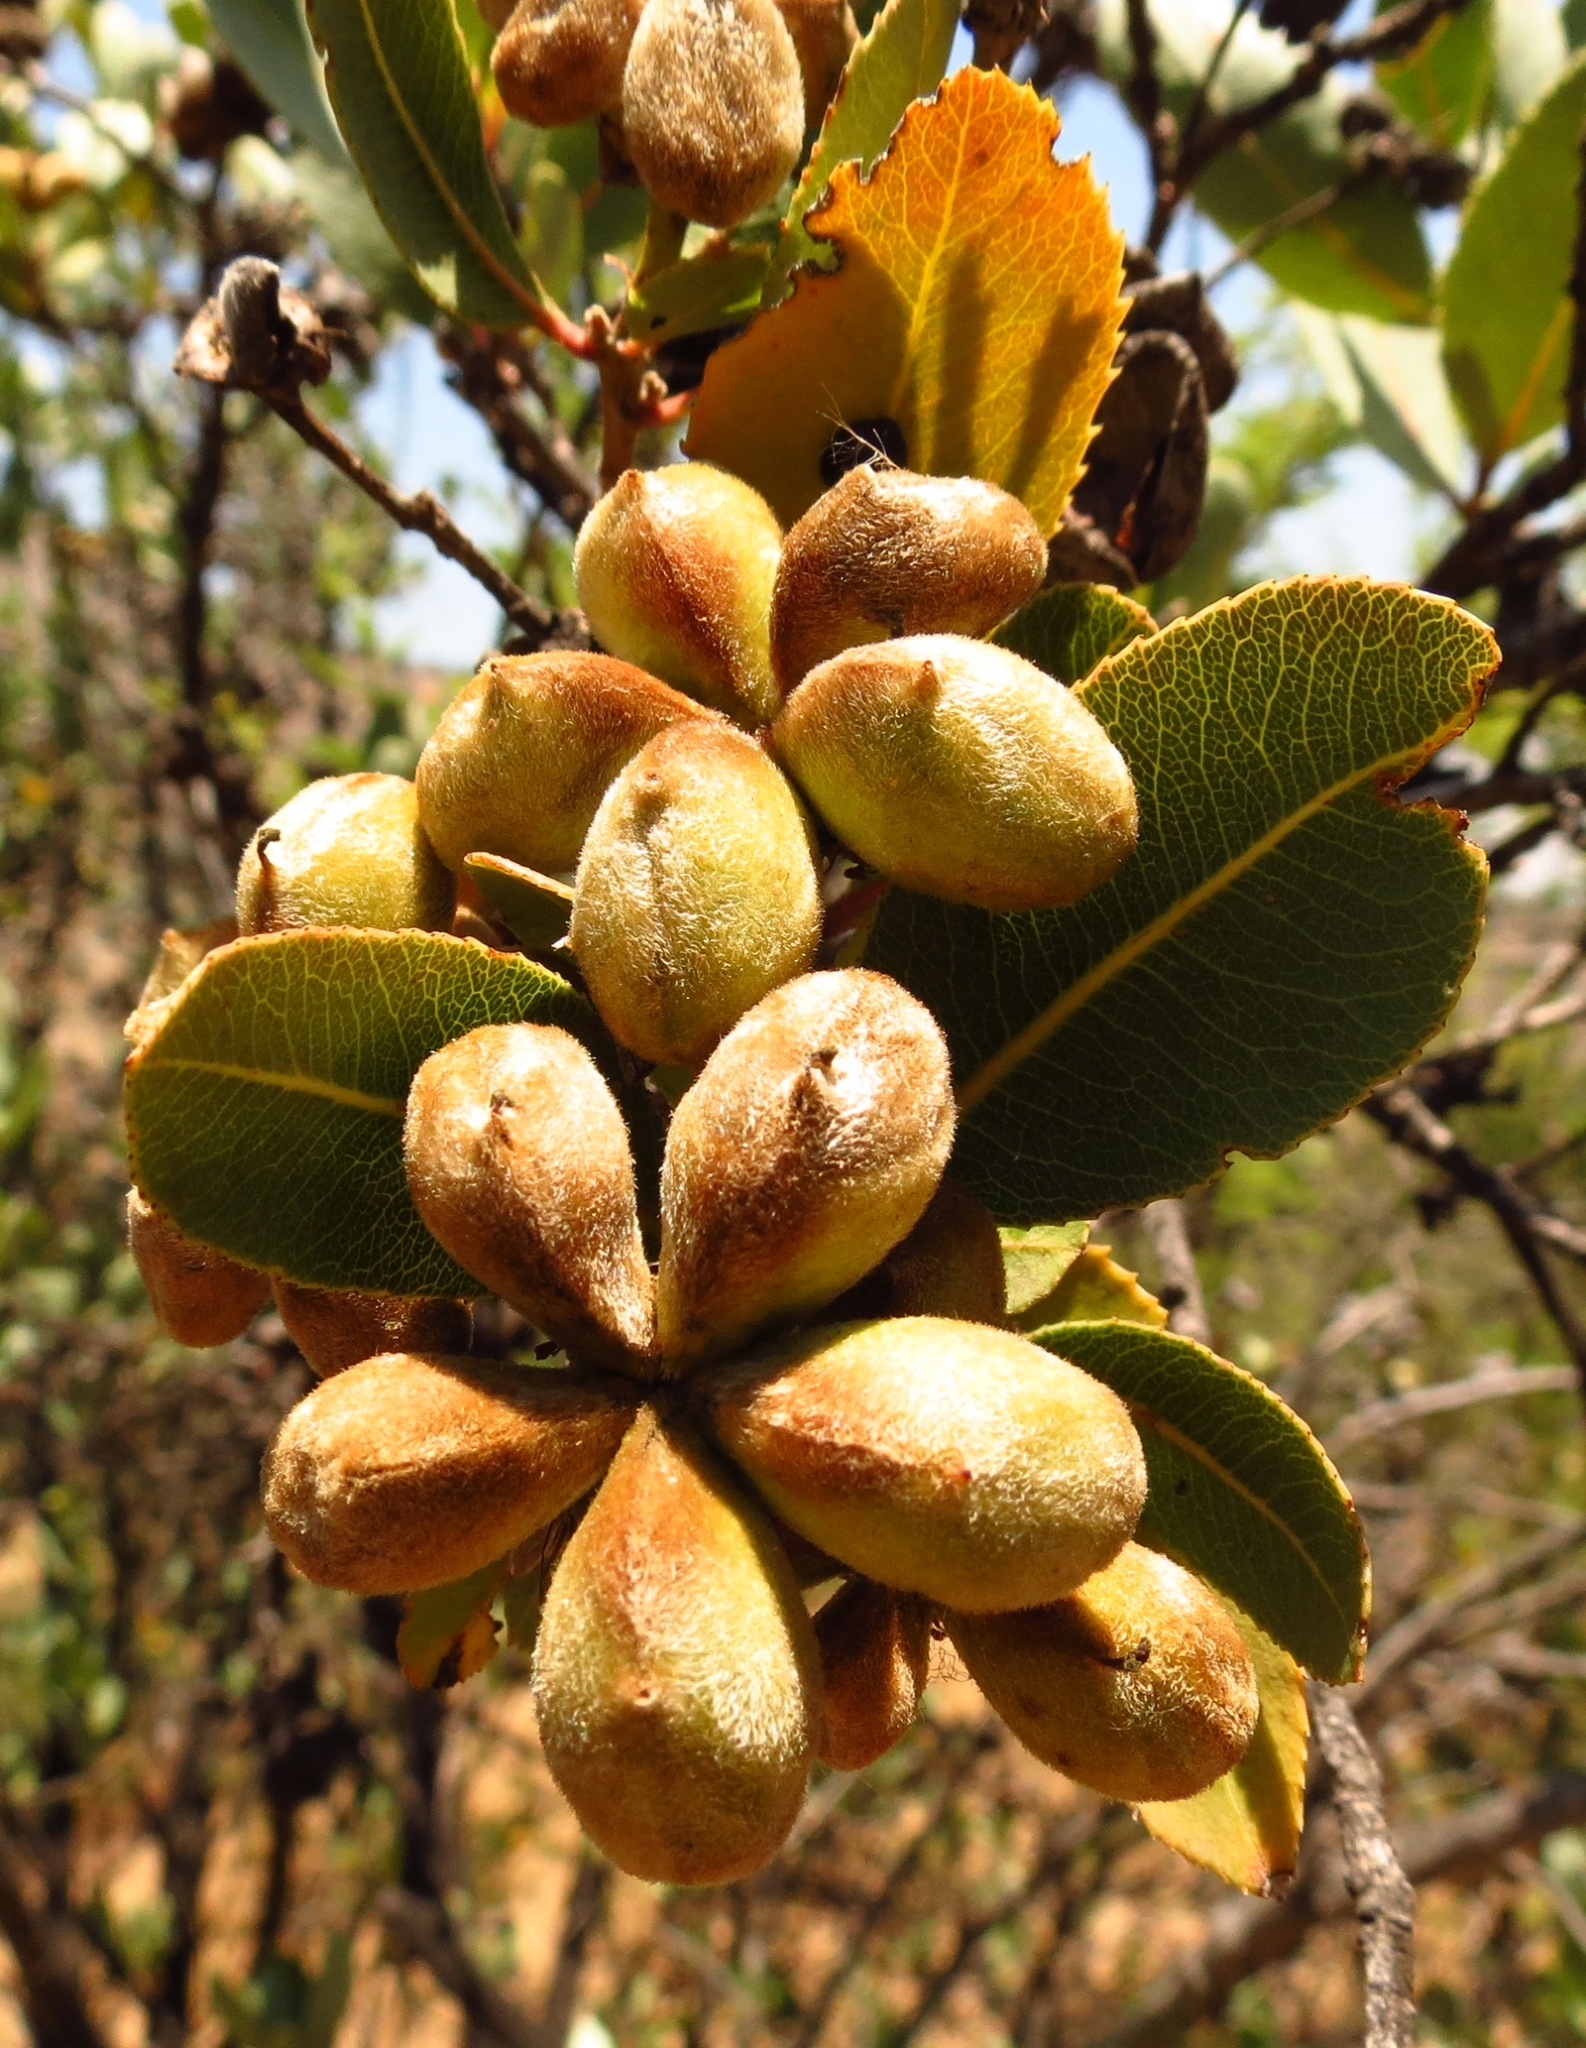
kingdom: Plantae
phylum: Tracheophyta
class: Magnoliopsida
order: Rosales
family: Rosaceae
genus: Kageneckia
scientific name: Kageneckia oblonga
